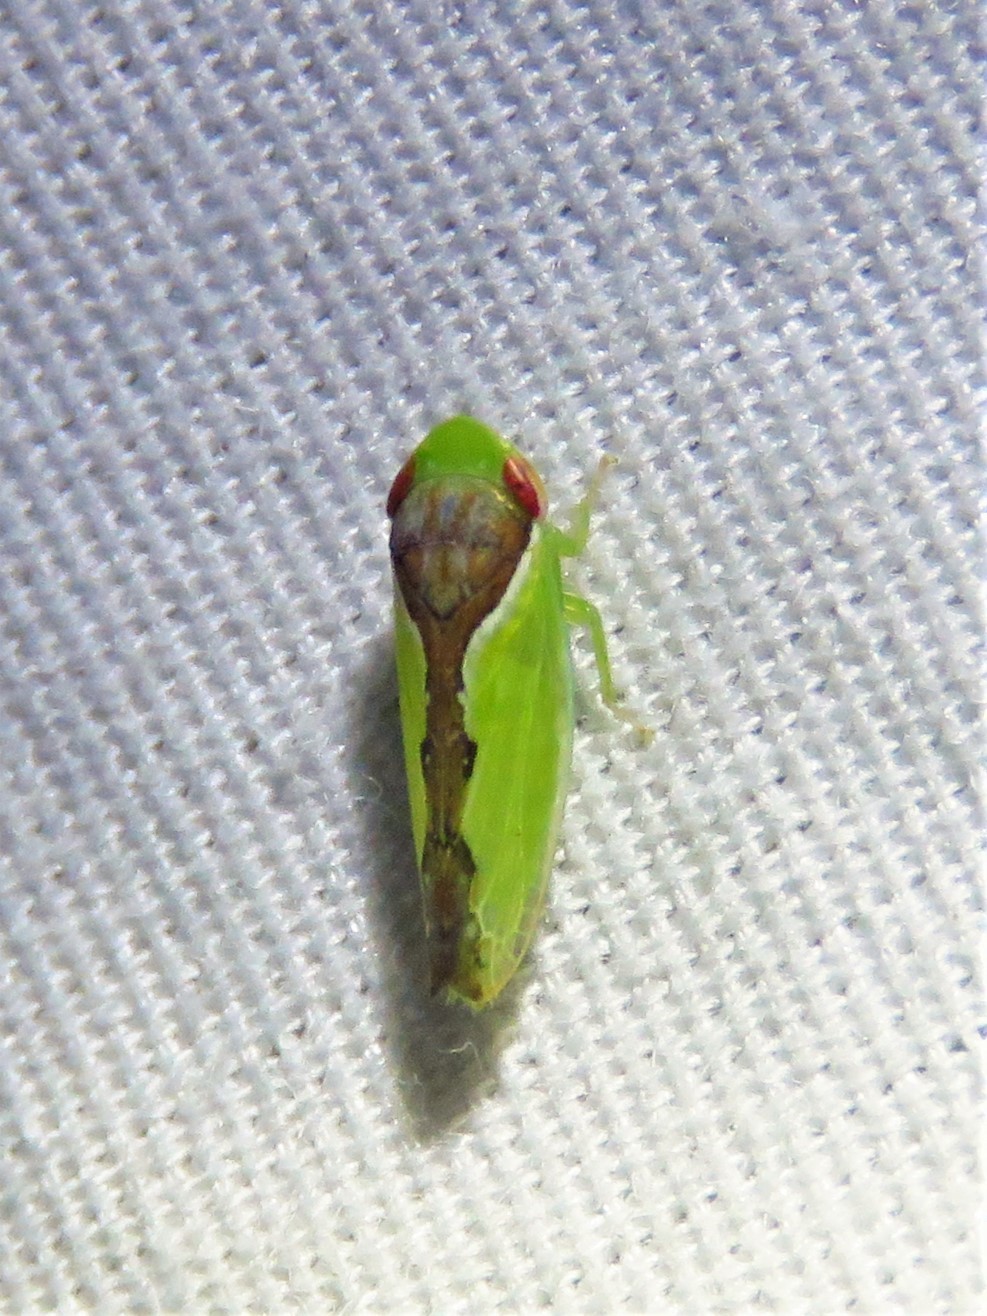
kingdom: Animalia
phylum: Arthropoda
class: Insecta
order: Hemiptera
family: Cicadellidae
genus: Omansobara ing
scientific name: Omansobara ing Omansobara palliolata
